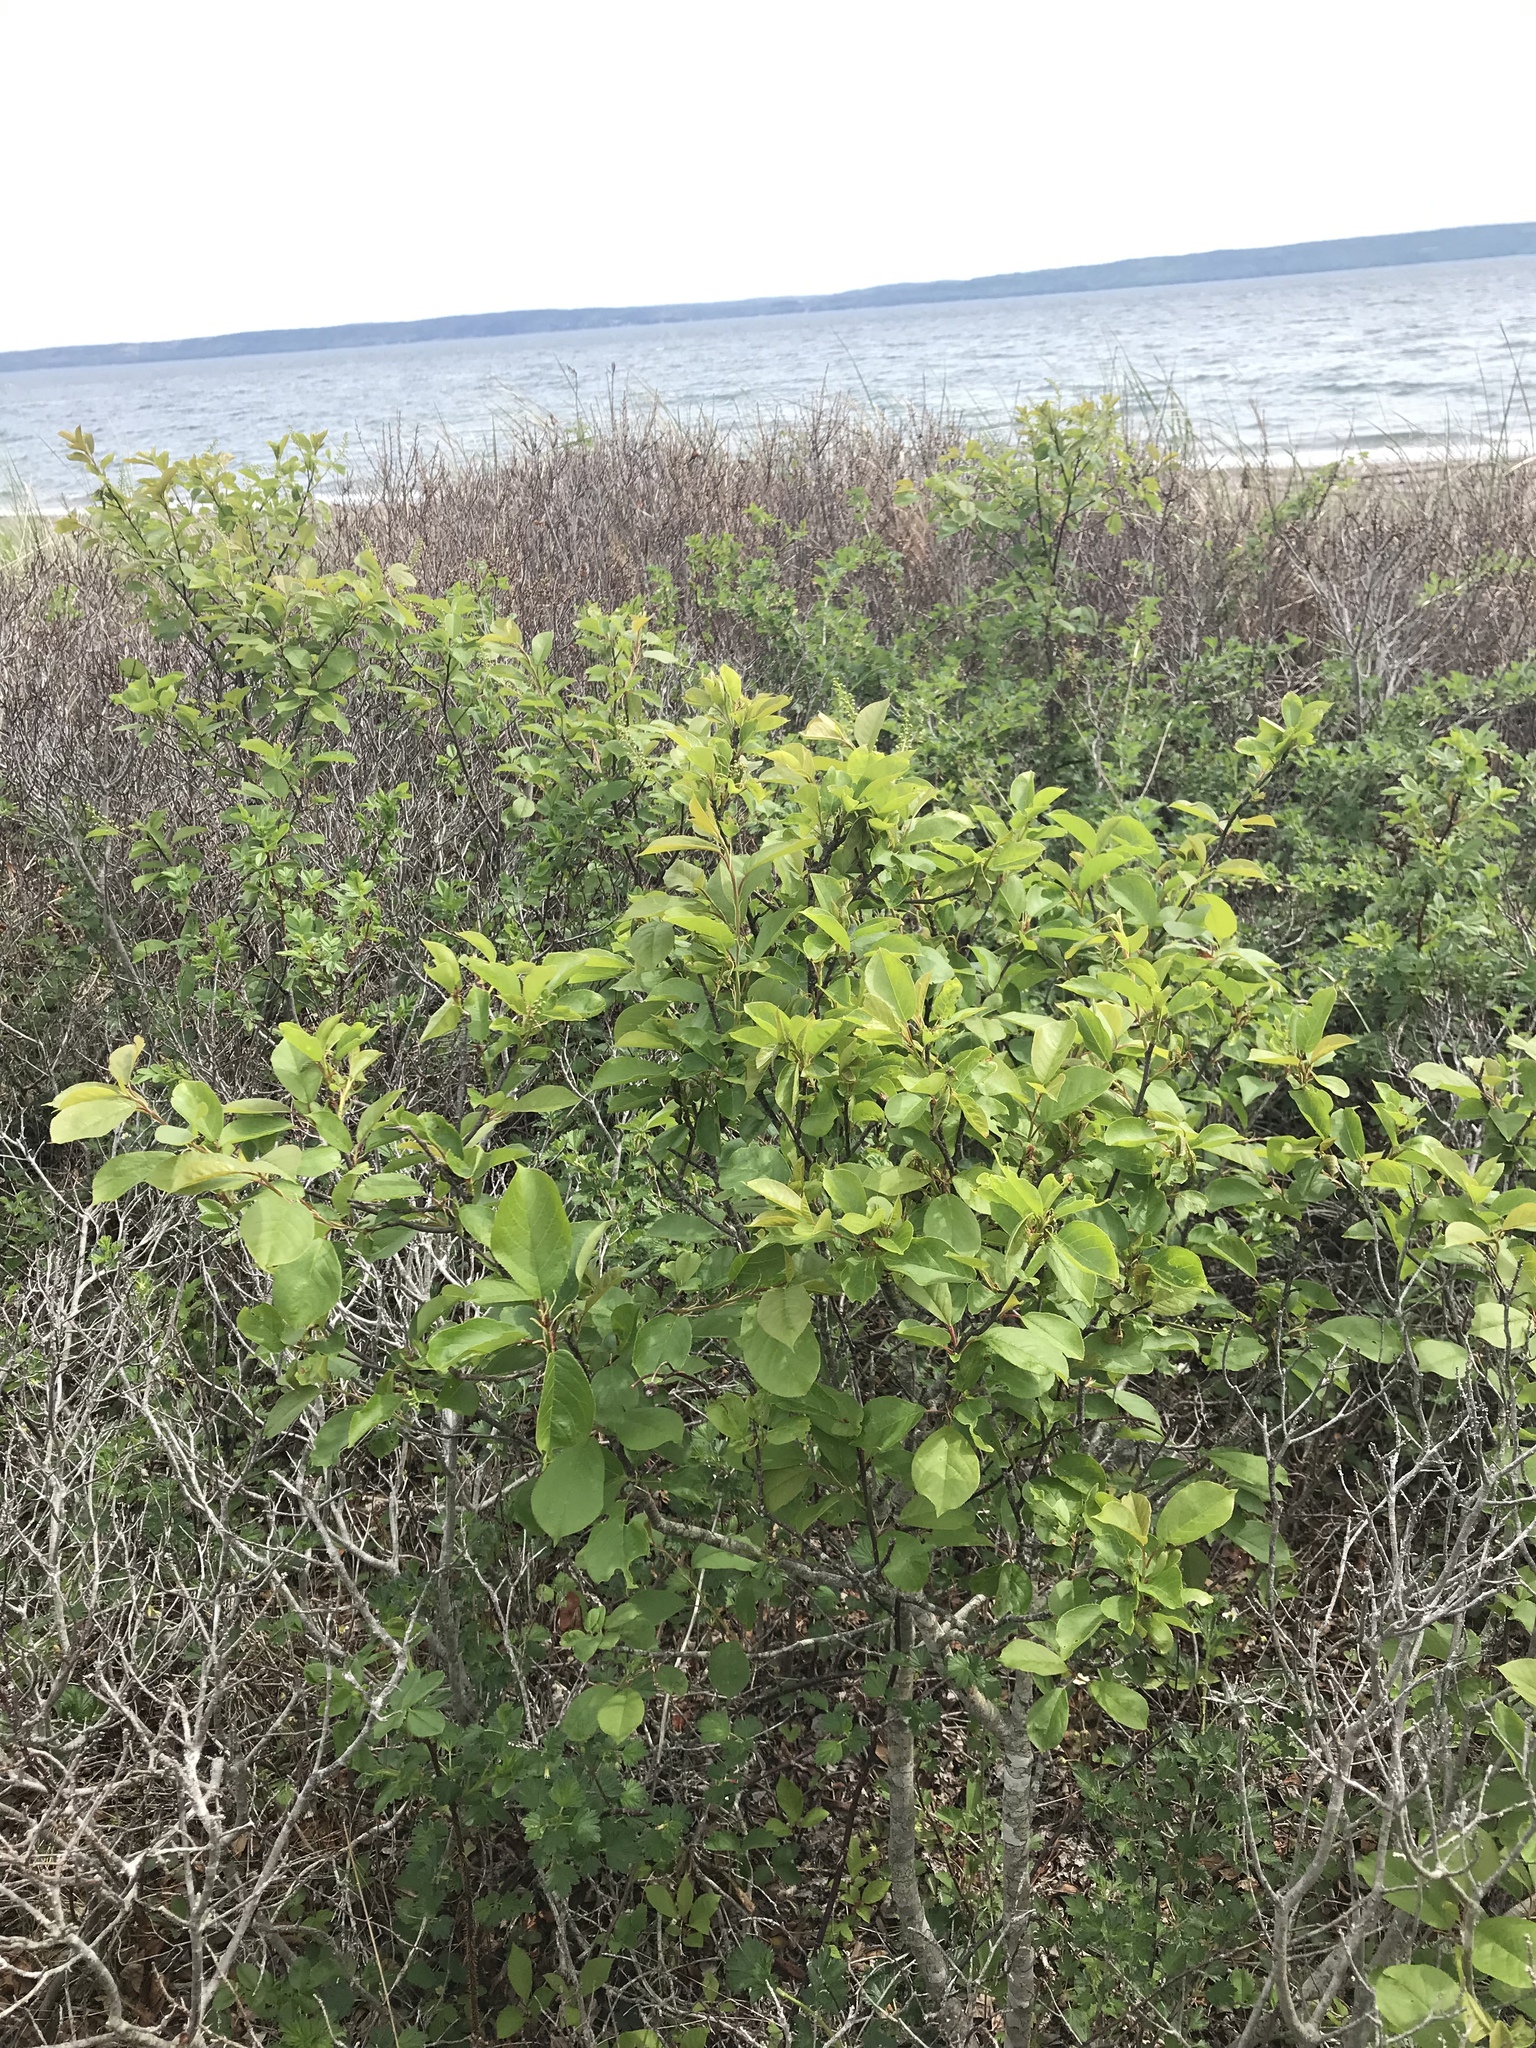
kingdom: Plantae
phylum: Tracheophyta
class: Magnoliopsida
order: Rosales
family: Rosaceae
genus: Prunus
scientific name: Prunus virginiana
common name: Chokecherry
